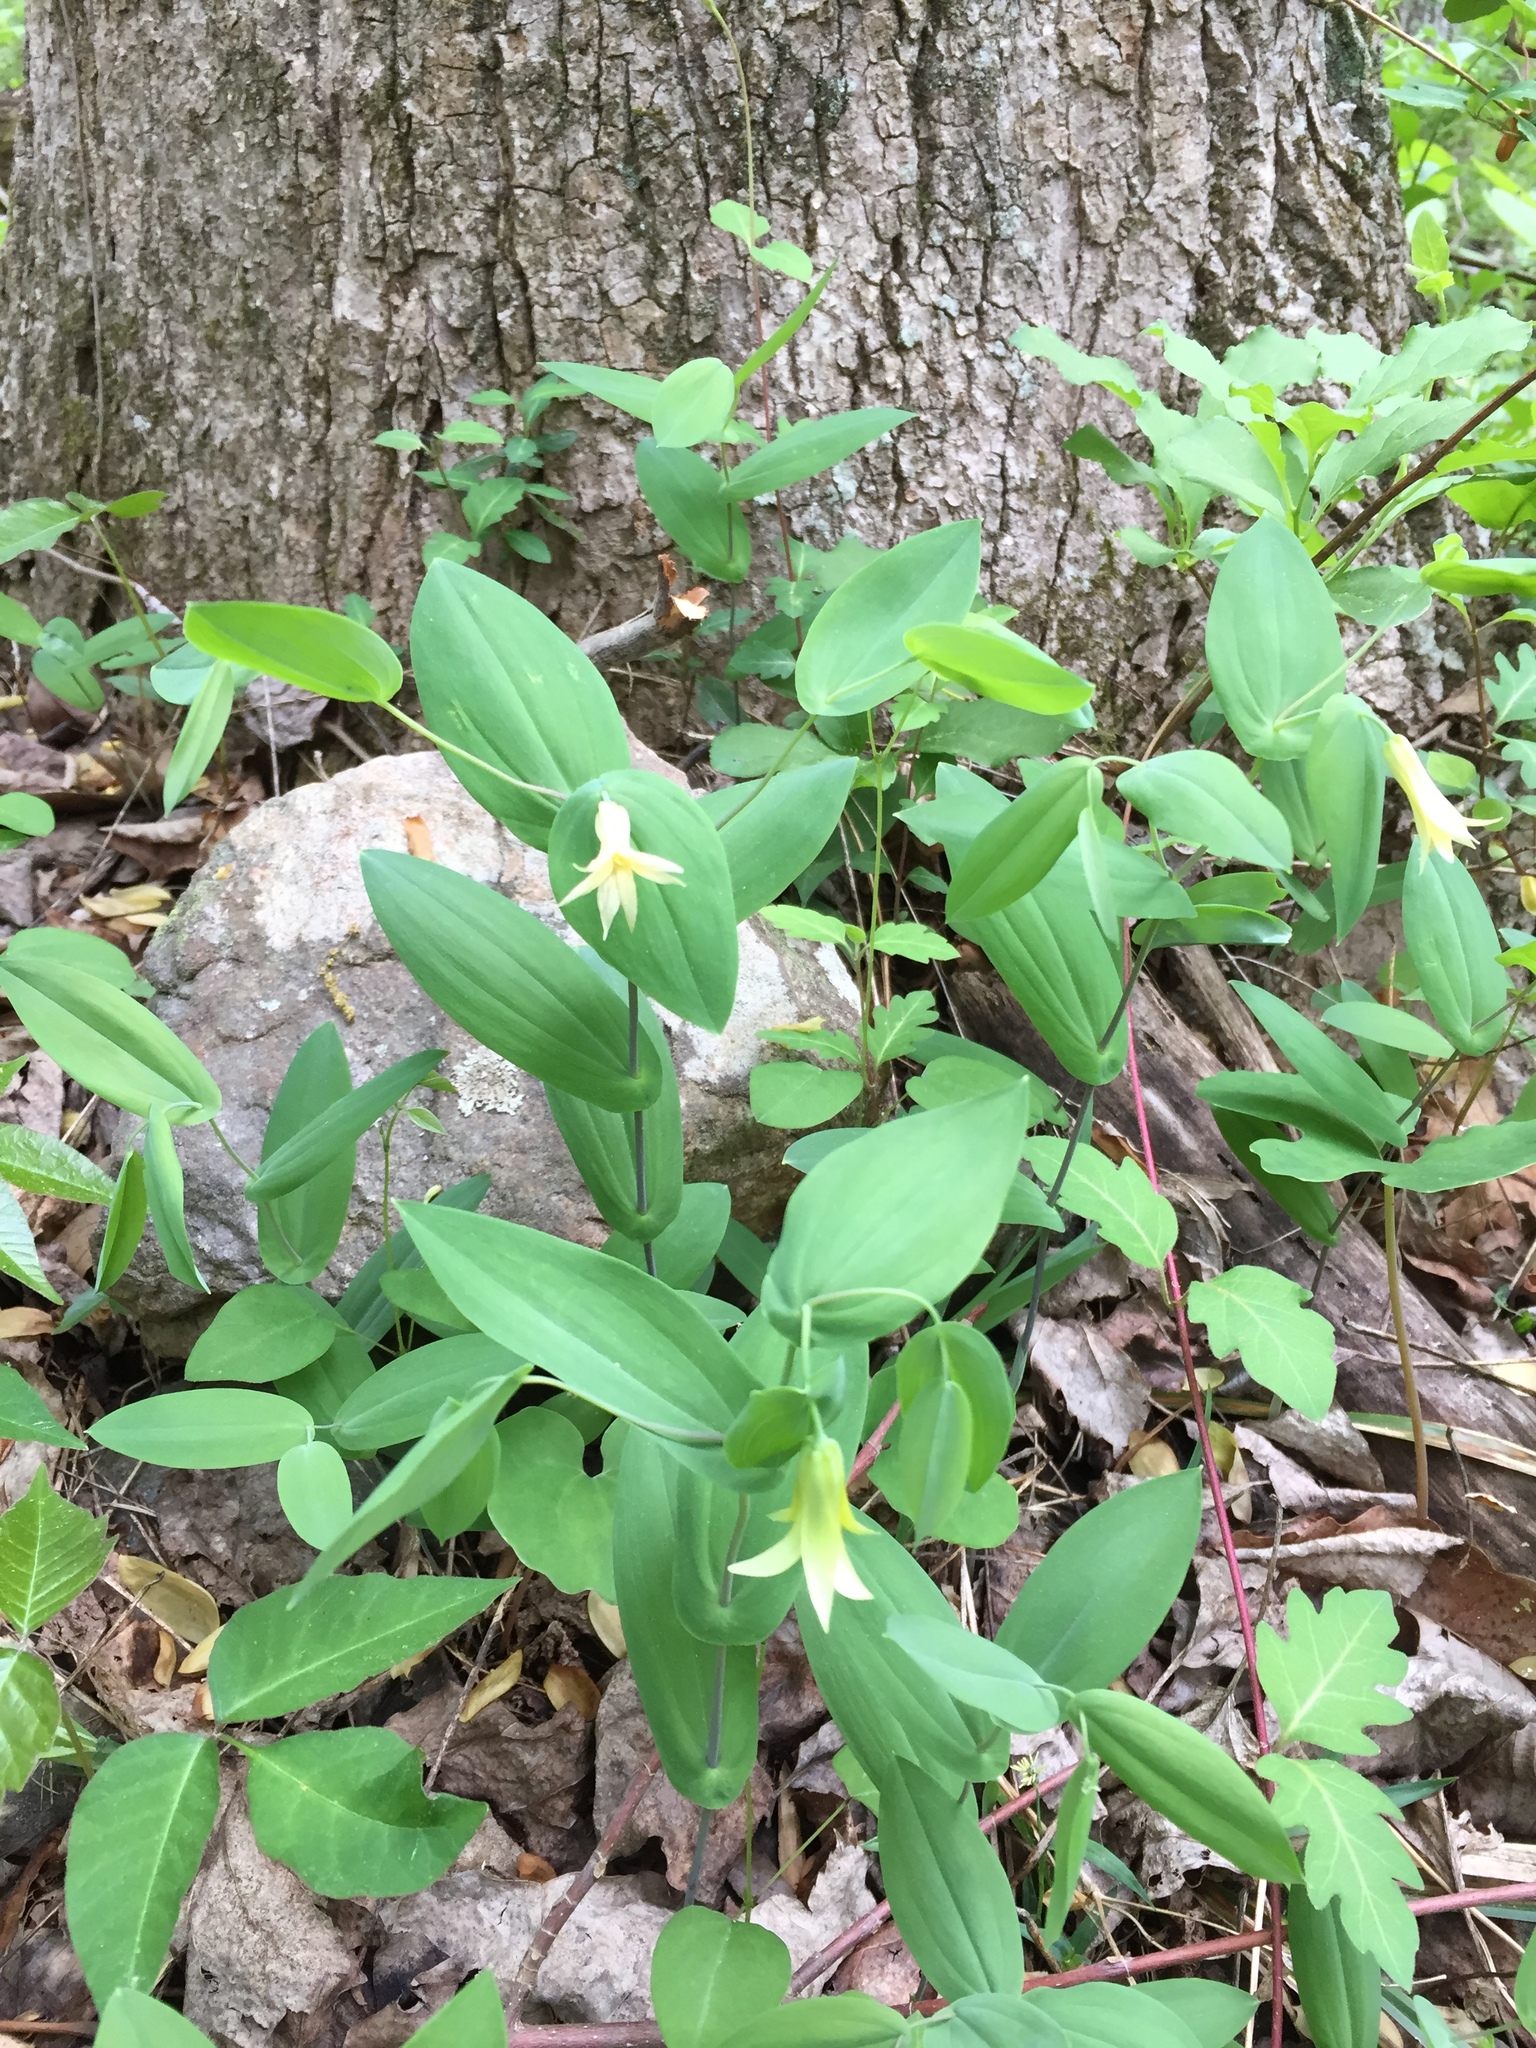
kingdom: Plantae
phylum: Tracheophyta
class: Liliopsida
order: Liliales
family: Colchicaceae
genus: Uvularia
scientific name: Uvularia perfoliata
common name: Perfoliate bellwort
